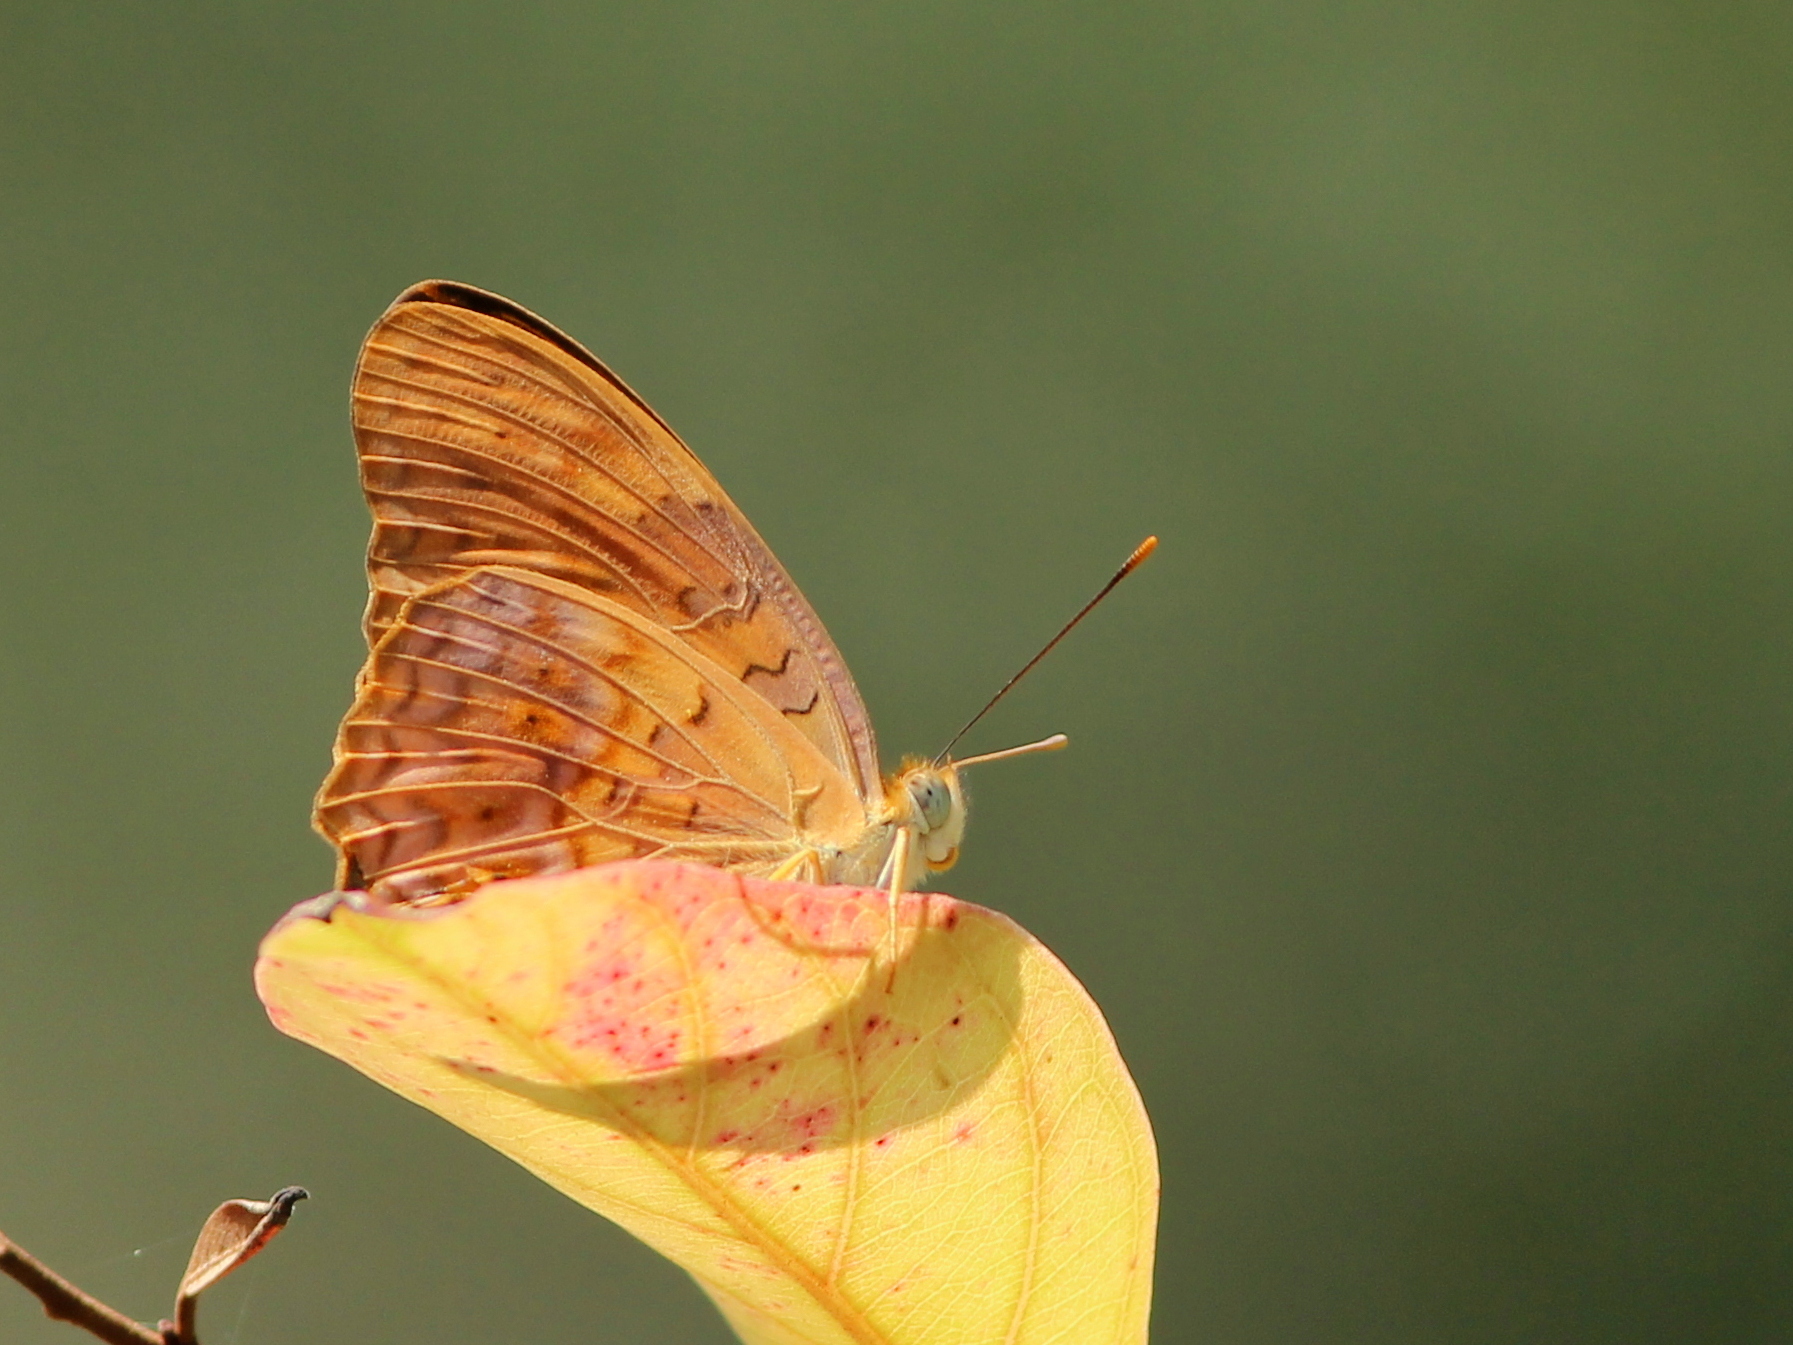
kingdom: Animalia
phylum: Arthropoda
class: Insecta
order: Lepidoptera
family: Nymphalidae
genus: Phalanta
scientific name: Phalanta phalantha
